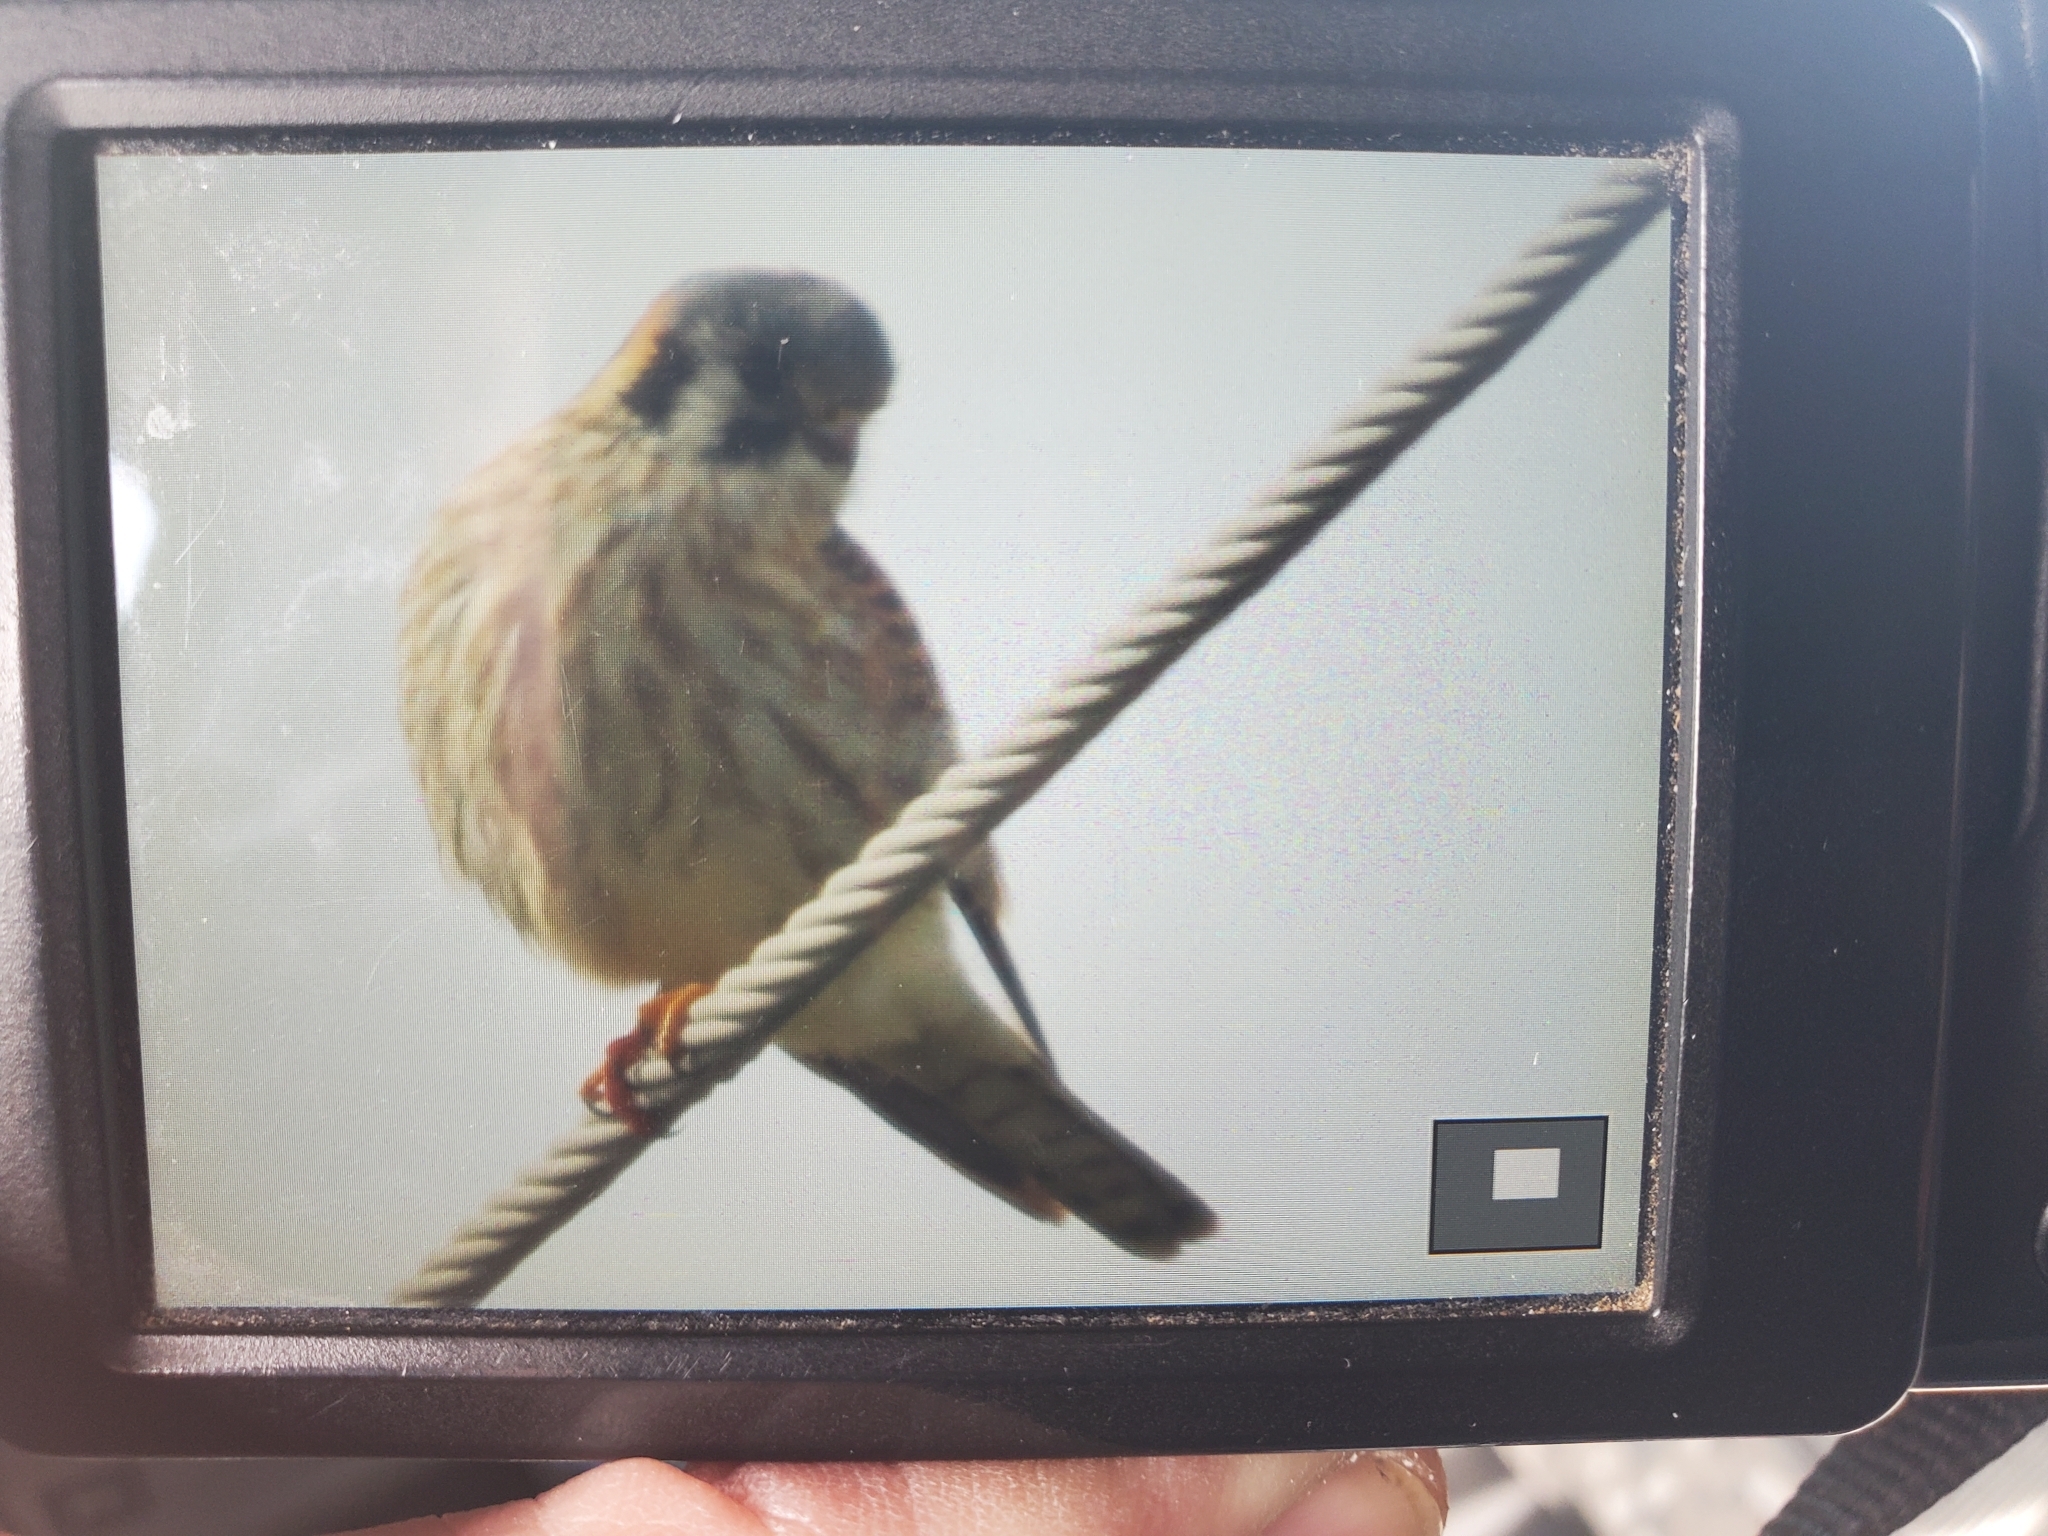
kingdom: Animalia
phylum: Chordata
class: Aves
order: Falconiformes
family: Falconidae
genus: Falco
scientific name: Falco sparverius
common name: American kestrel
